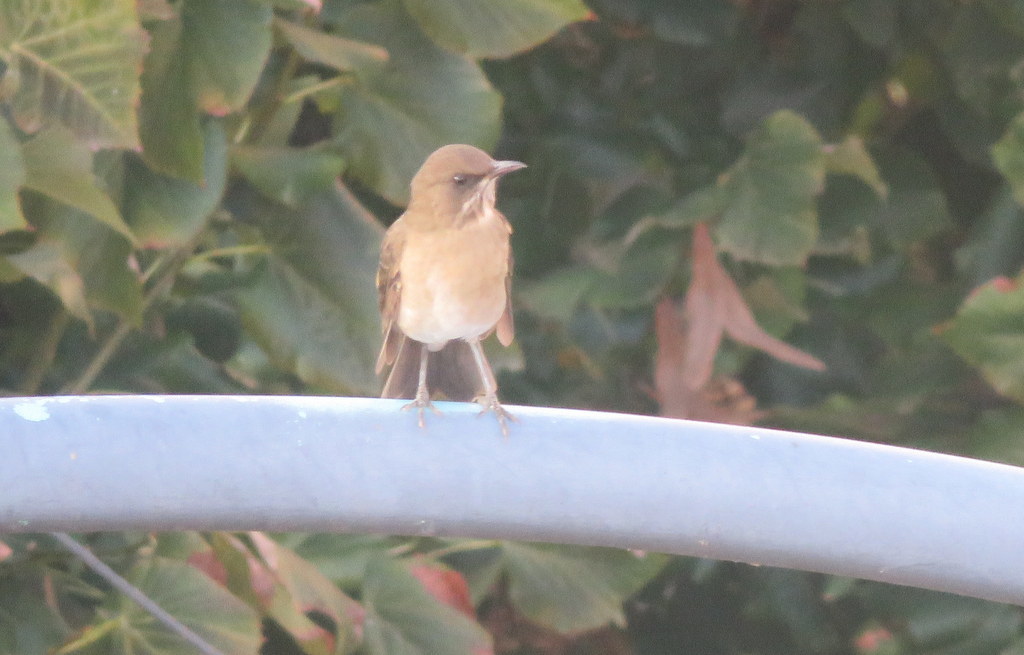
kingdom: Animalia
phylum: Chordata
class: Aves
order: Passeriformes
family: Turdidae
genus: Turdus
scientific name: Turdus amaurochalinus
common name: Creamy-bellied thrush
